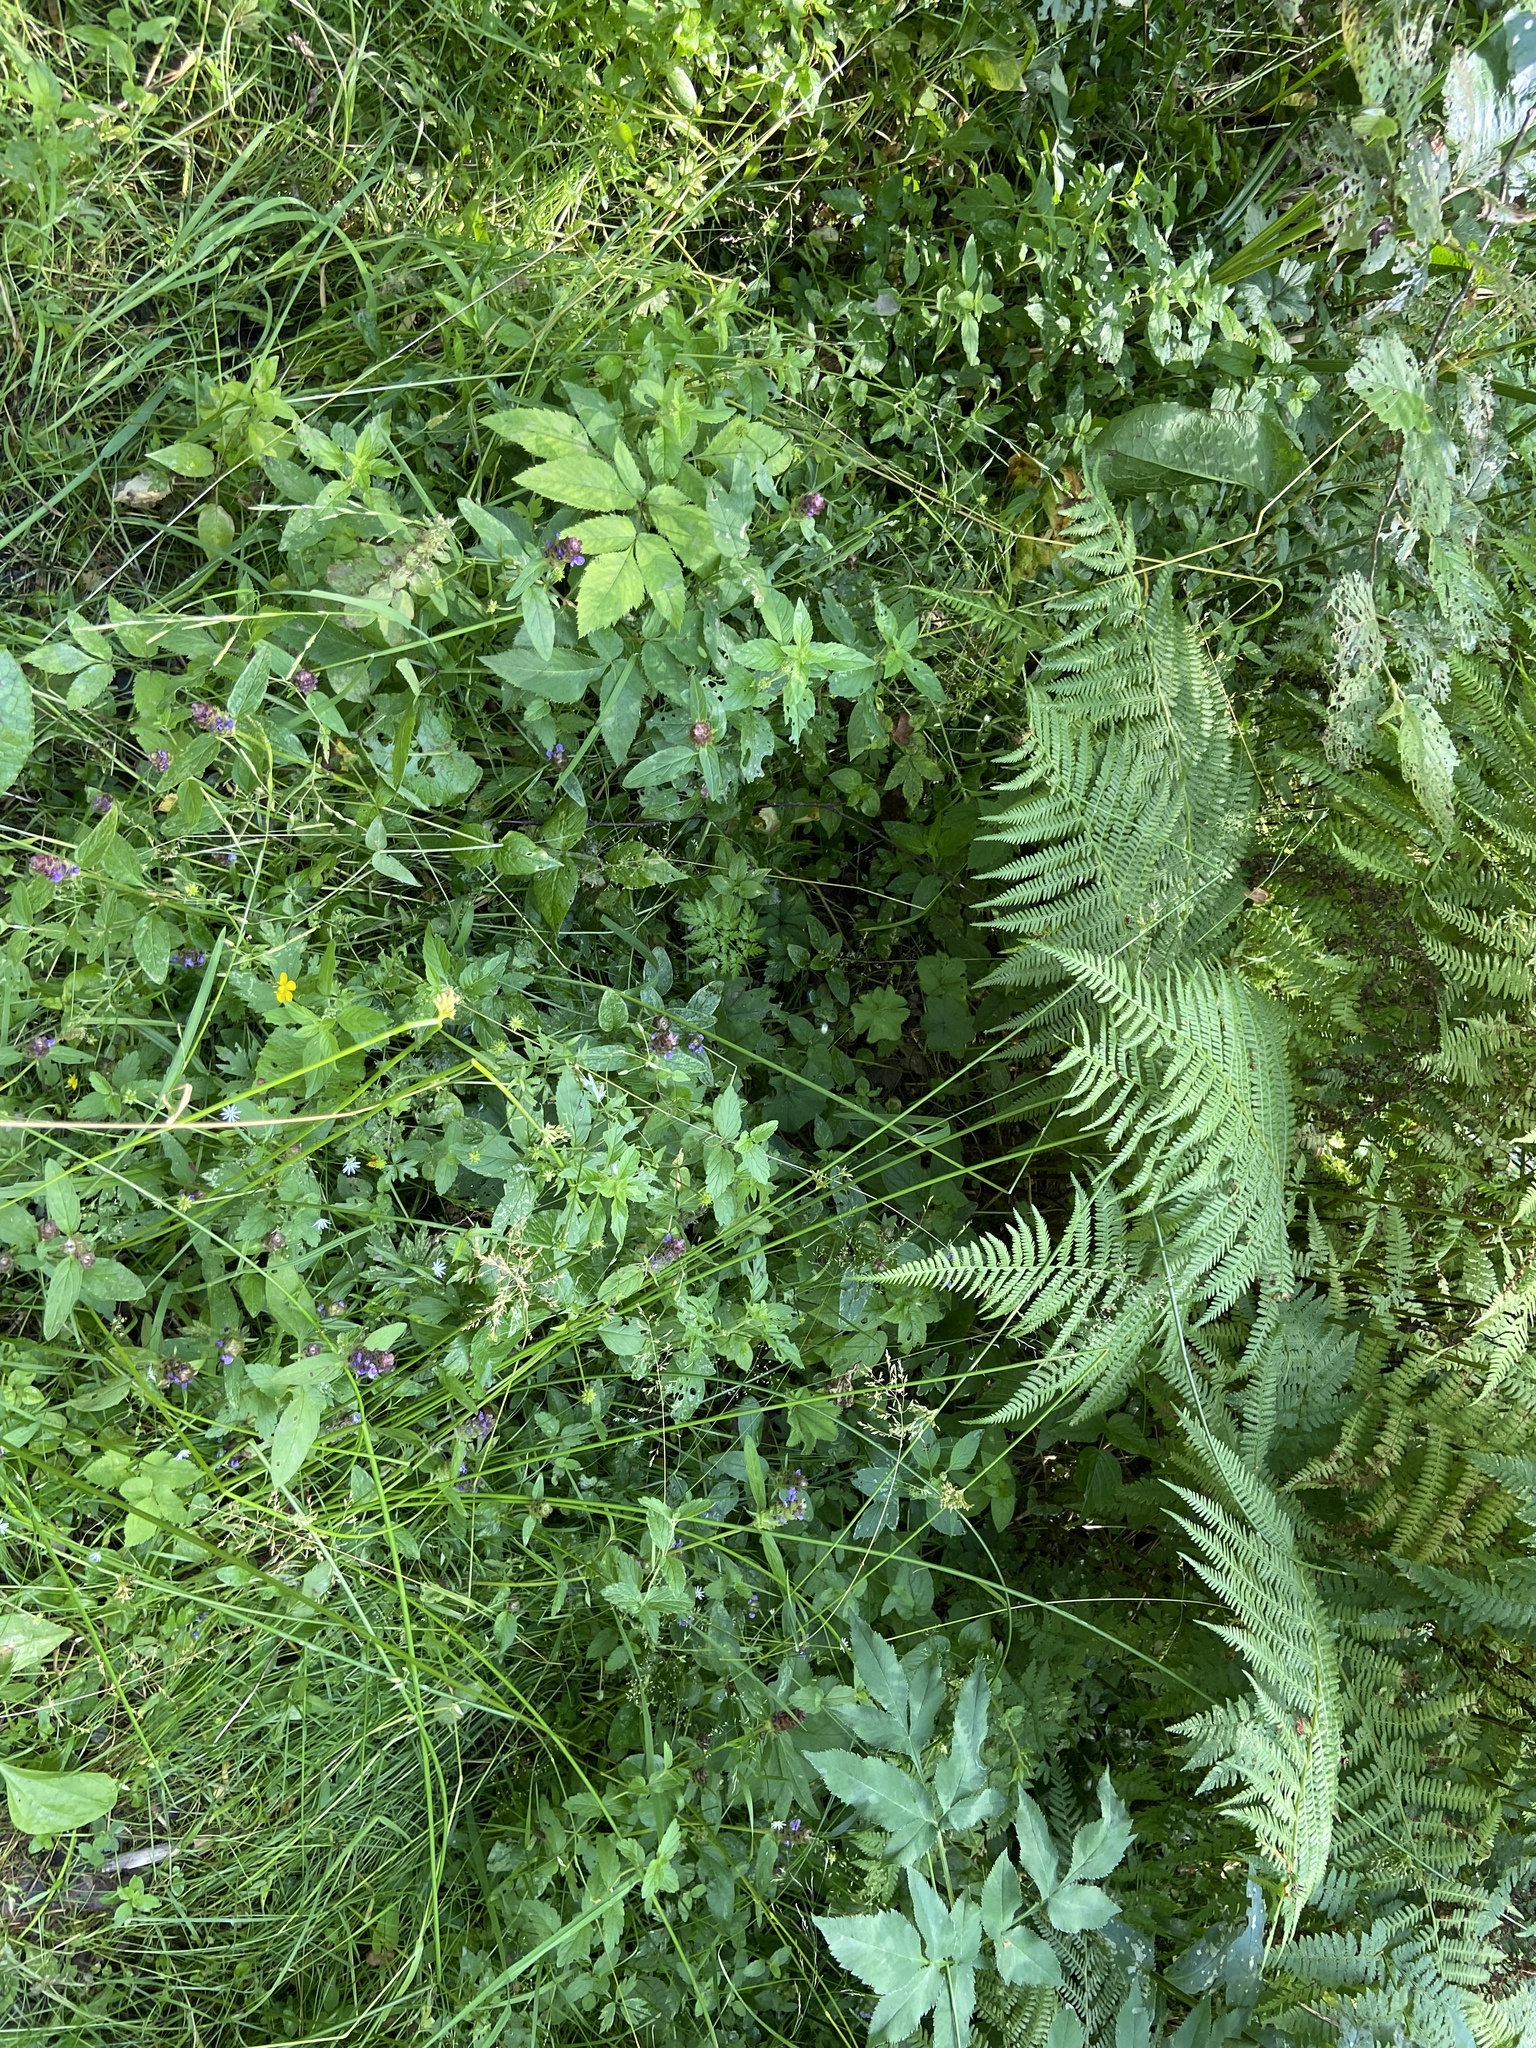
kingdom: Plantae
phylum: Tracheophyta
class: Magnoliopsida
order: Lamiales
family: Lamiaceae
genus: Prunella
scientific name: Prunella vulgaris
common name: Heal-all
